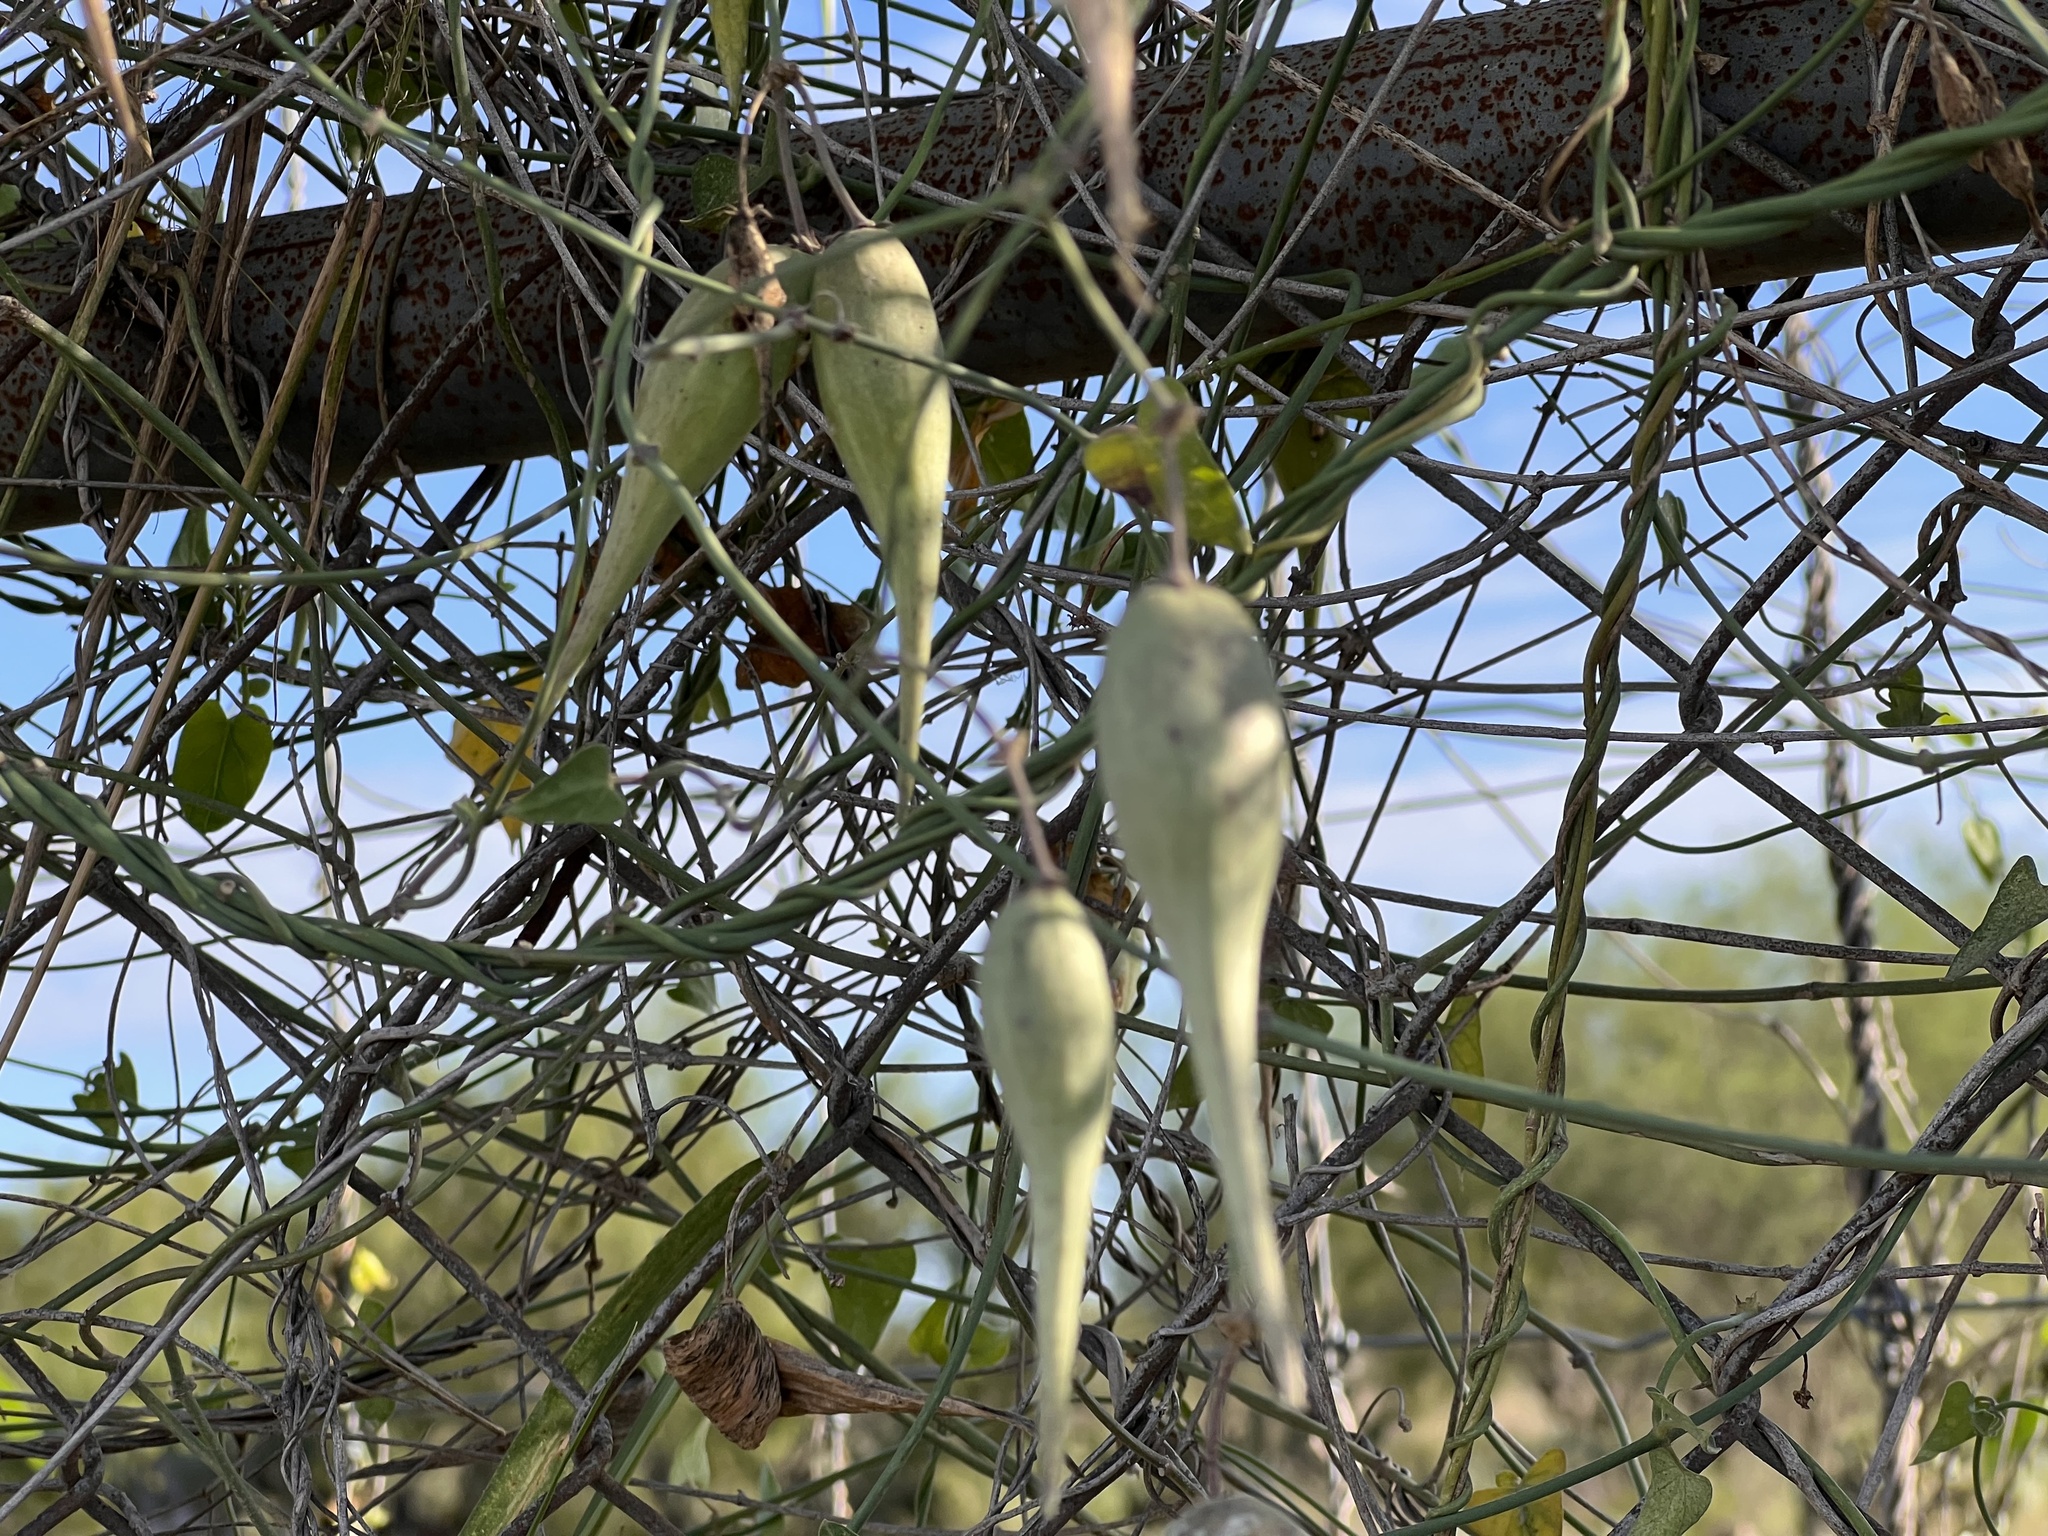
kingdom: Plantae
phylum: Tracheophyta
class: Magnoliopsida
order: Gentianales
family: Apocynaceae
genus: Funastrum
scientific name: Funastrum cynanchoides
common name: Climbing-milkweed
